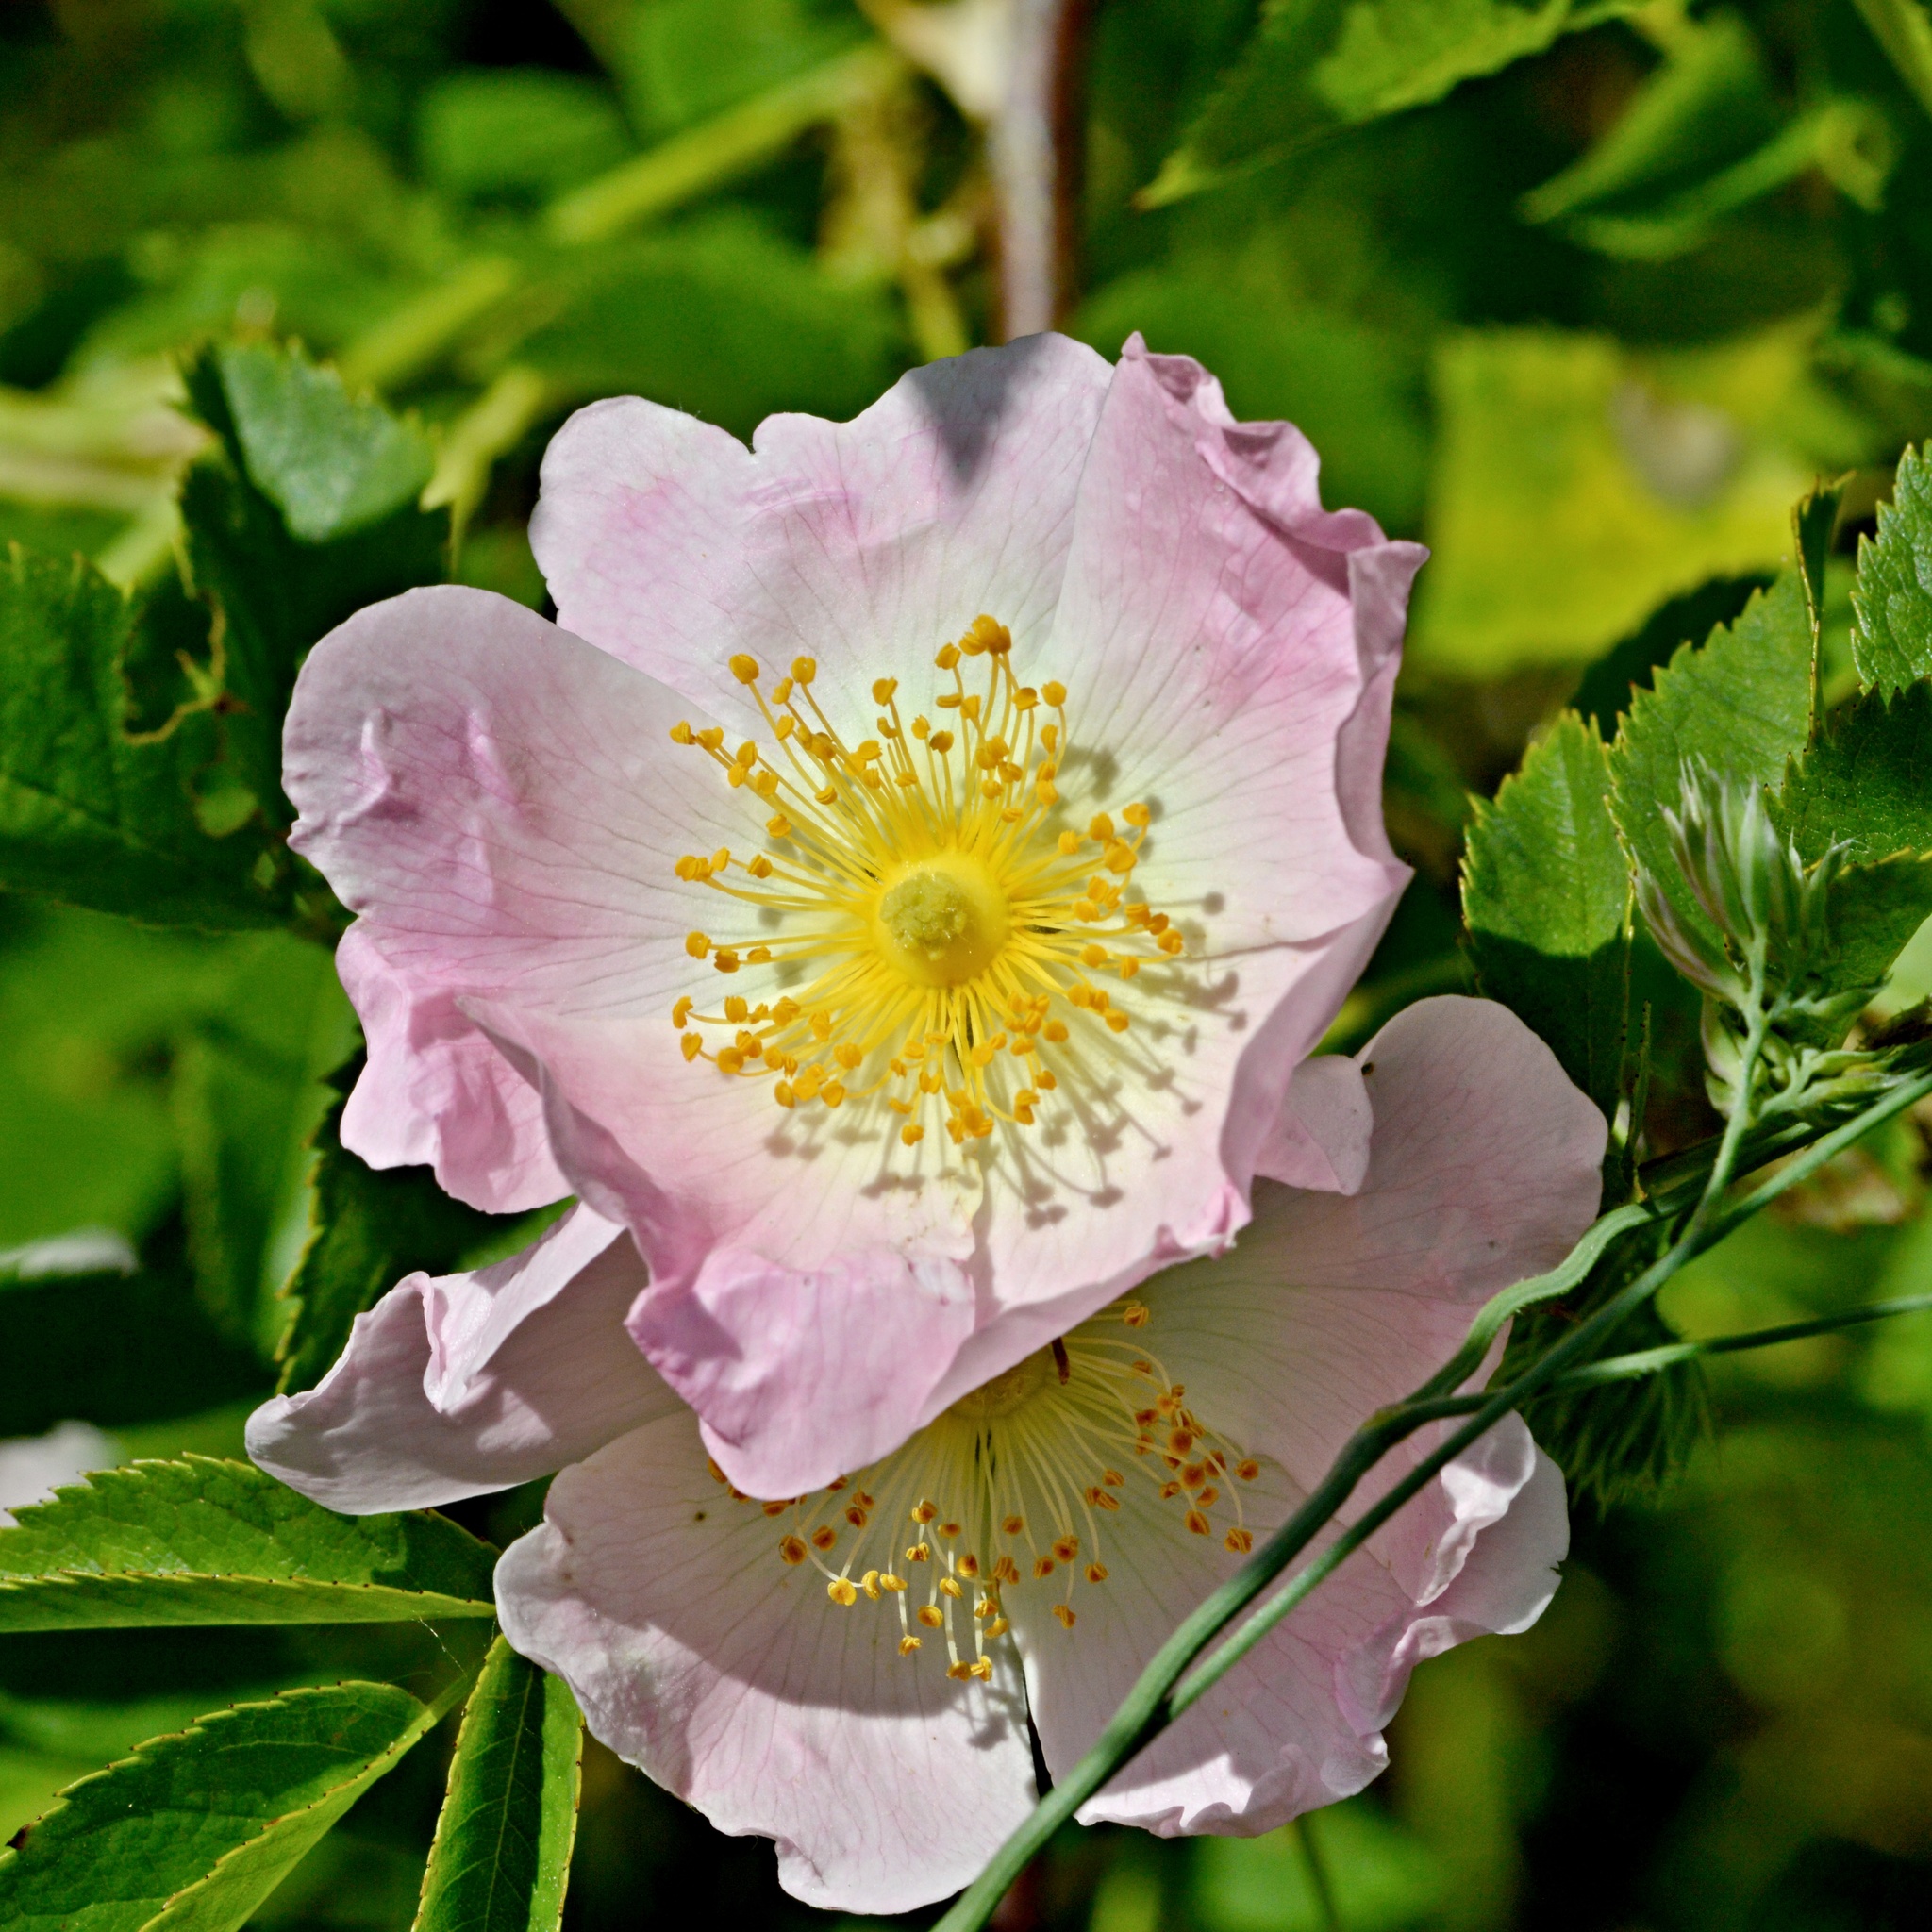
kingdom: Plantae
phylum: Tracheophyta
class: Magnoliopsida
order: Rosales
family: Rosaceae
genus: Rosa
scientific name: Rosa canina
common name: Dog rose
